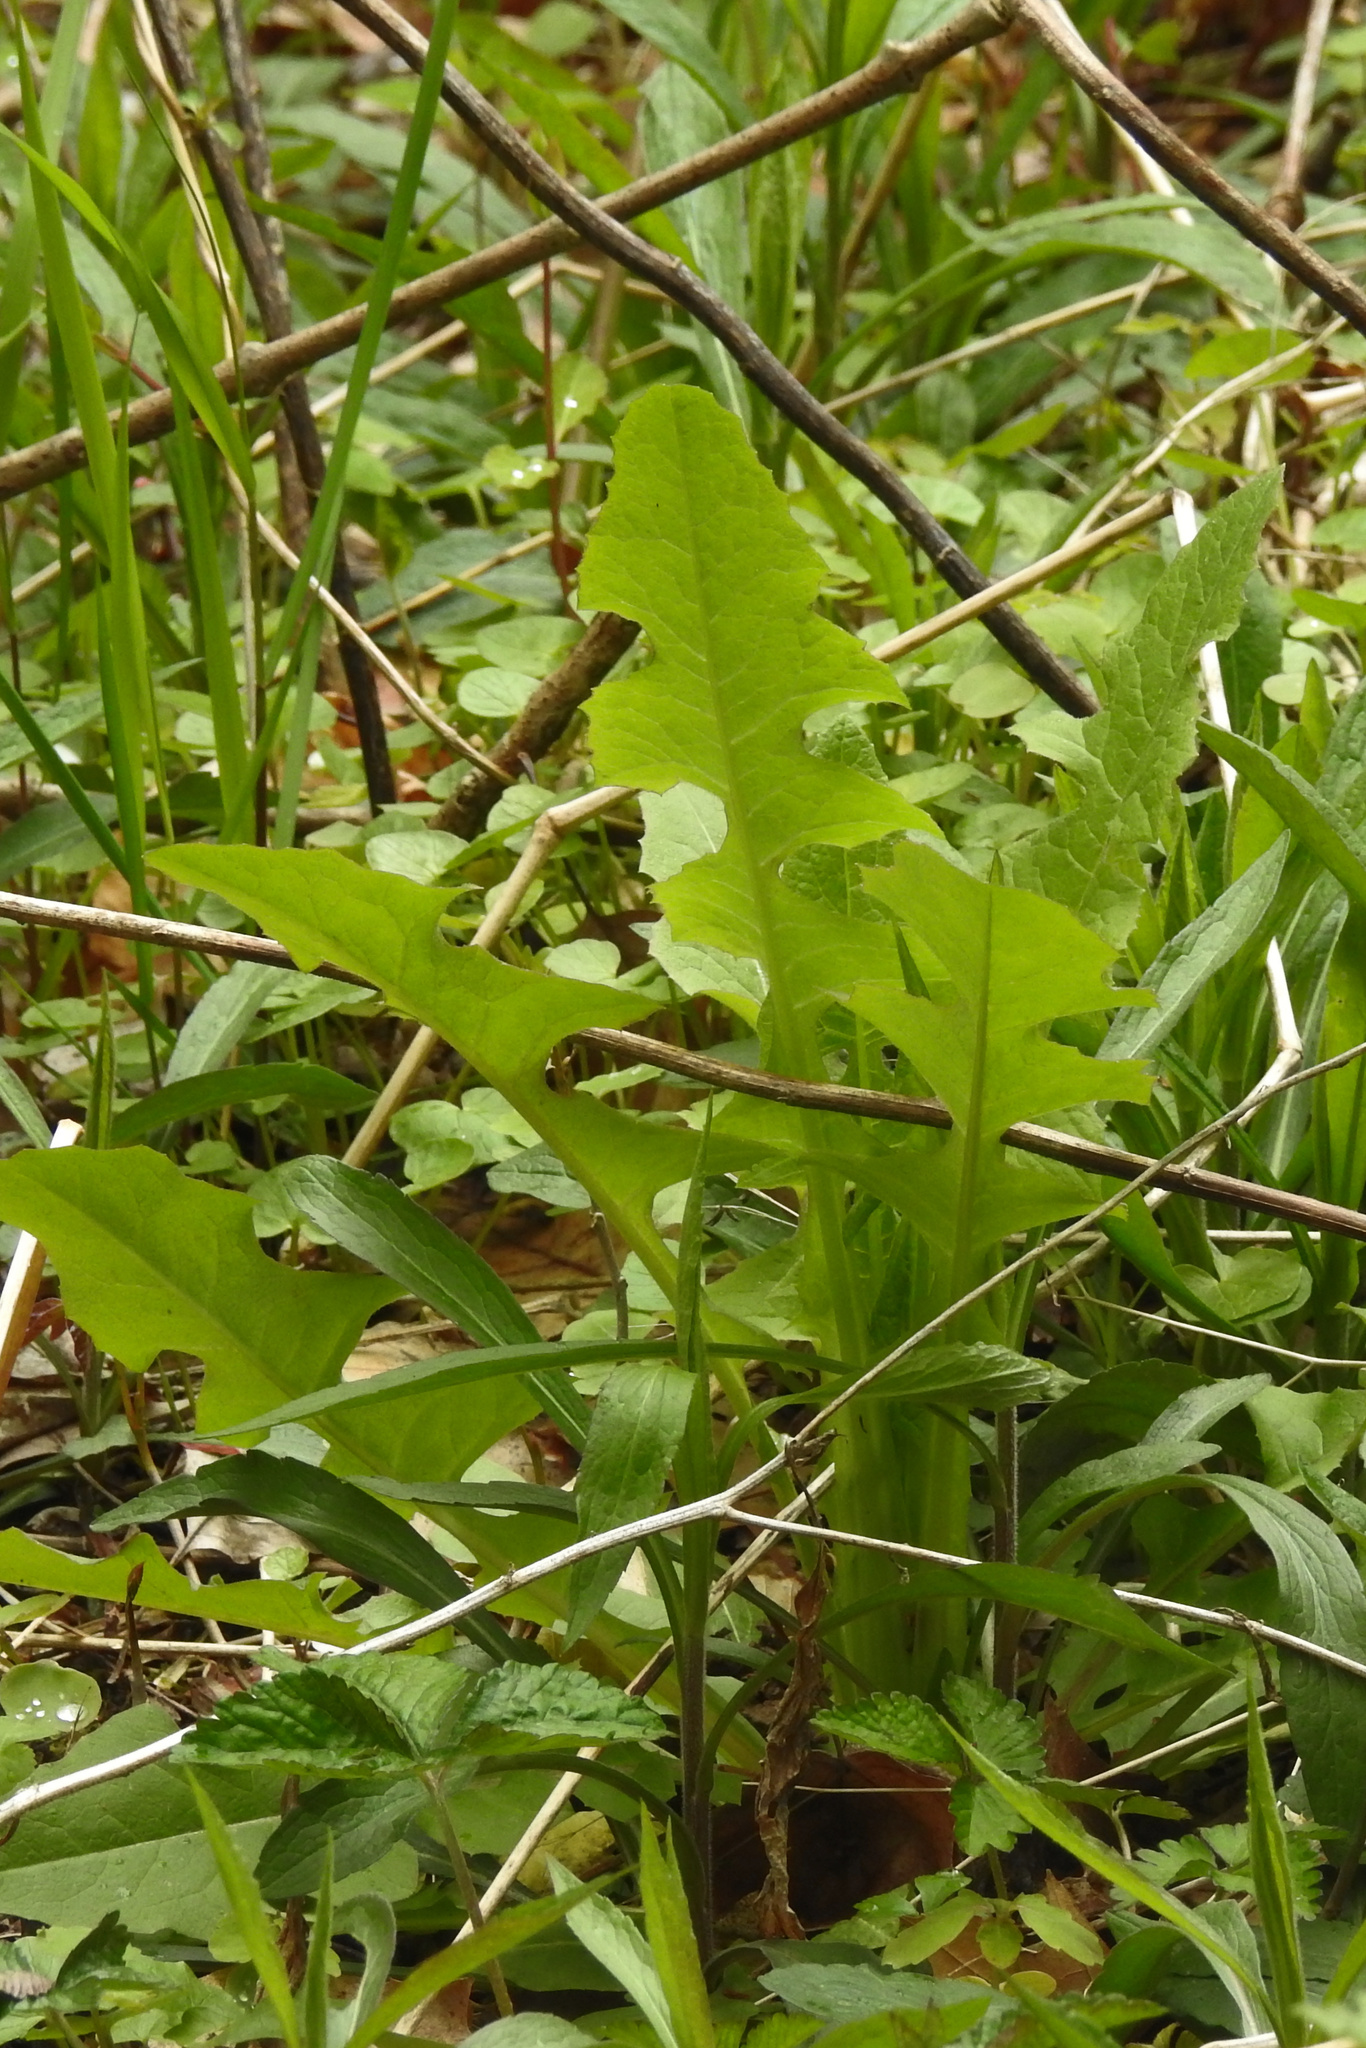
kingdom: Plantae
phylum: Tracheophyta
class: Magnoliopsida
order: Asterales
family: Asteraceae
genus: Taraxacum
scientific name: Taraxacum officinale
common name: Common dandelion
